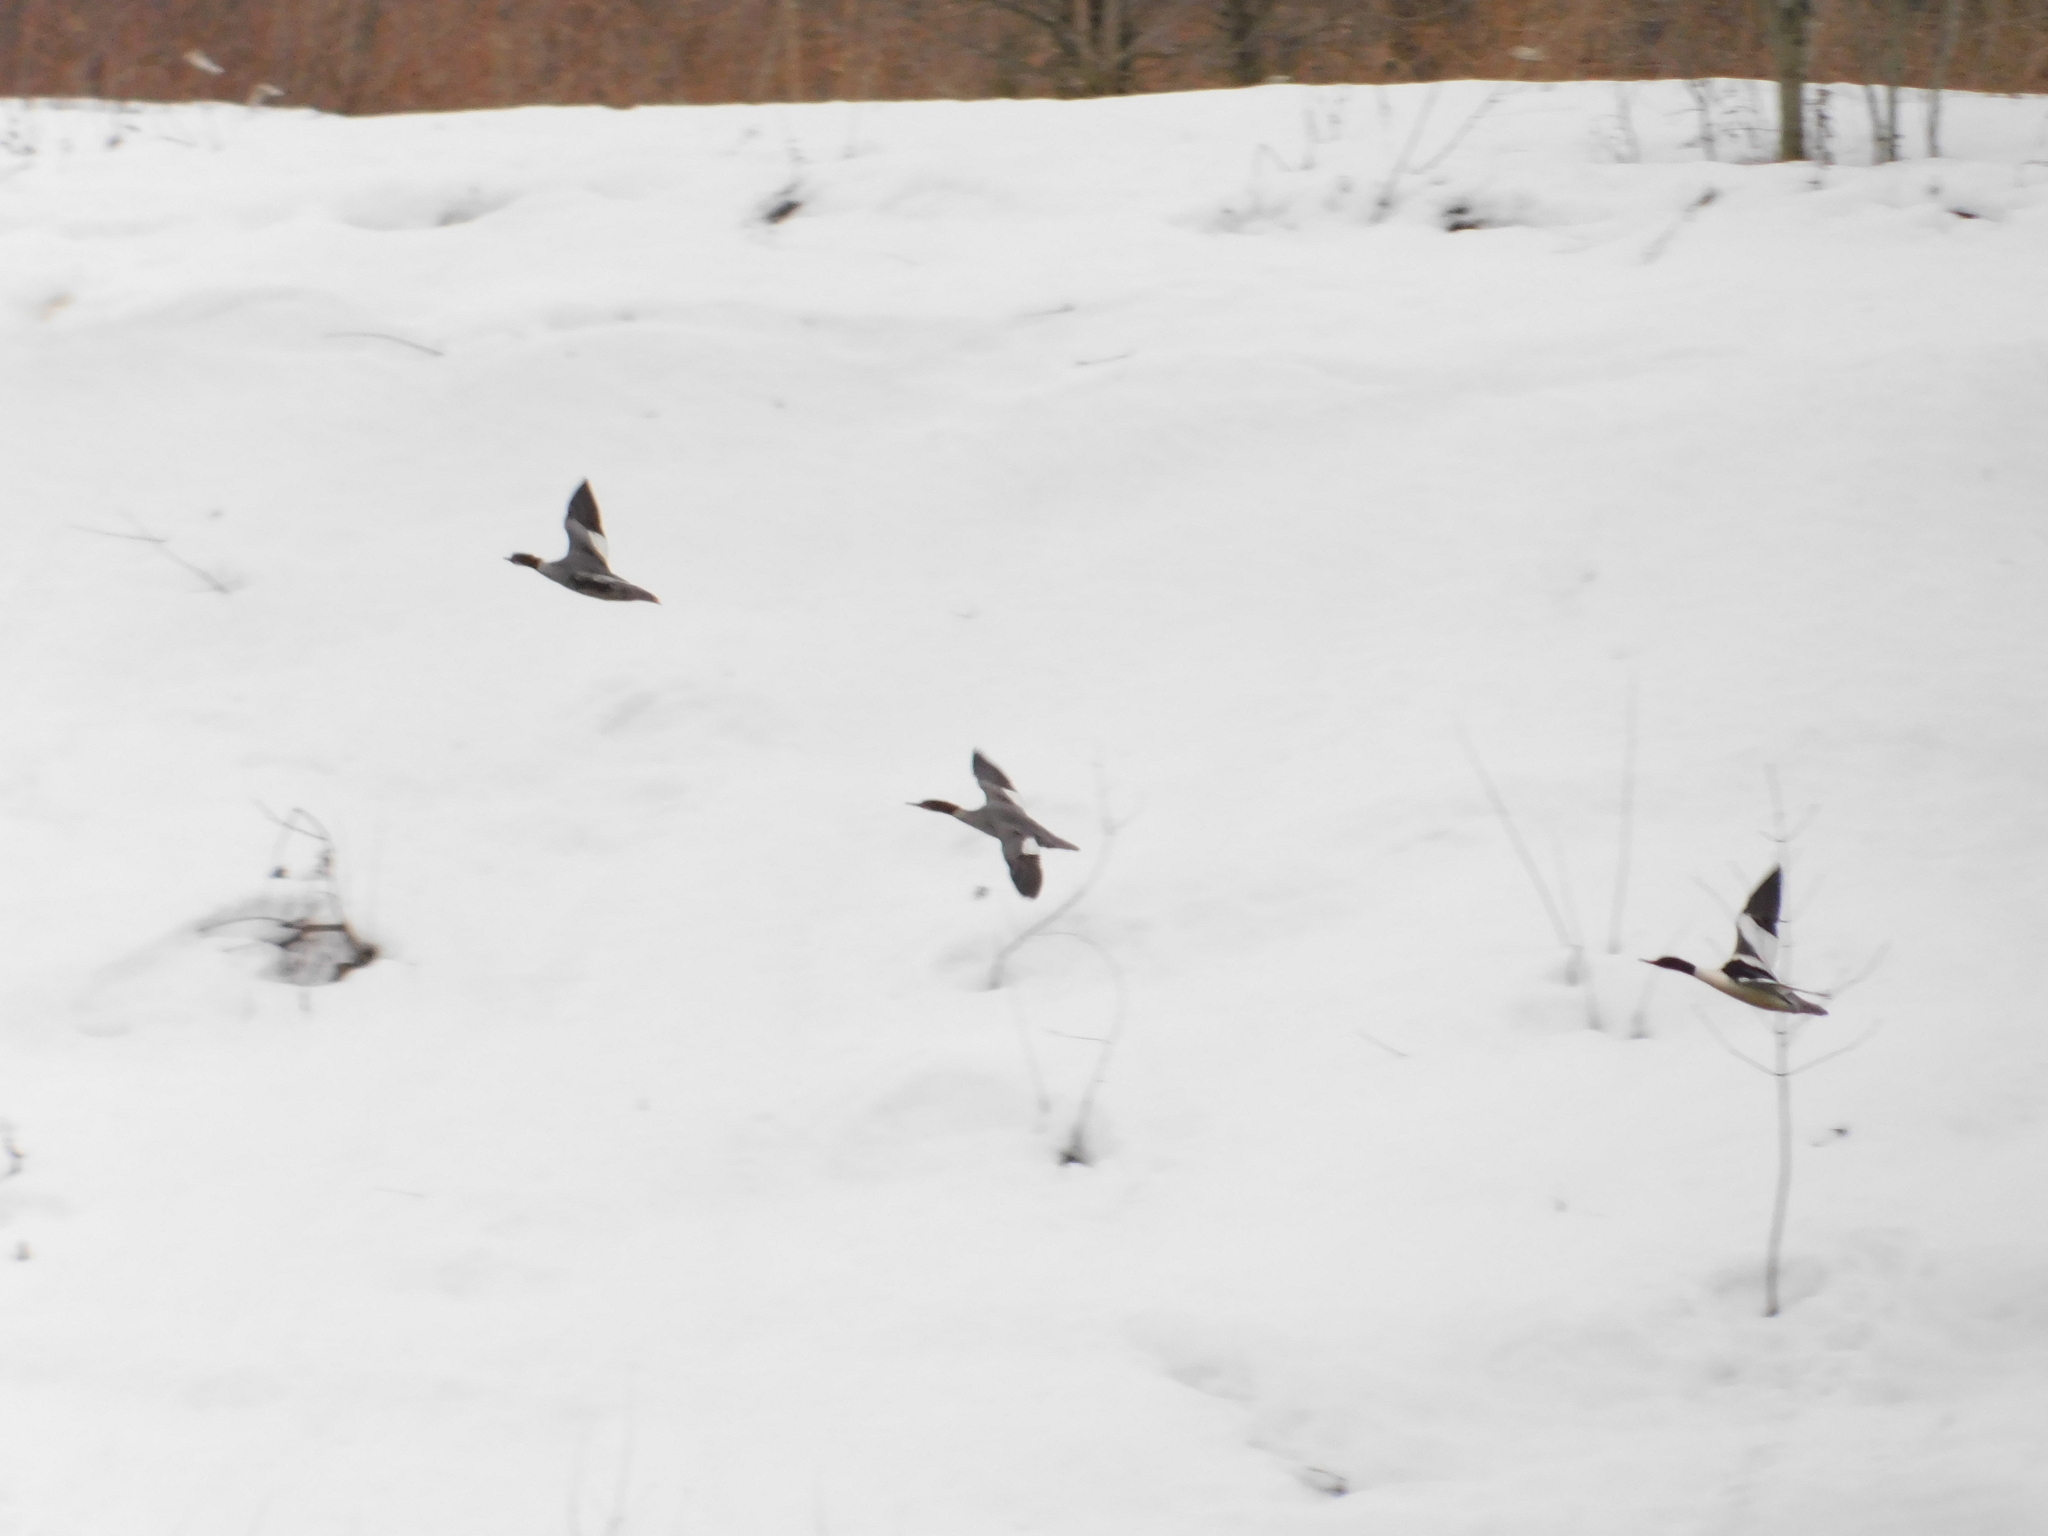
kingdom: Animalia
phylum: Chordata
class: Aves
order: Anseriformes
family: Anatidae
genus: Mergus
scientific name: Mergus merganser
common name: Common merganser
